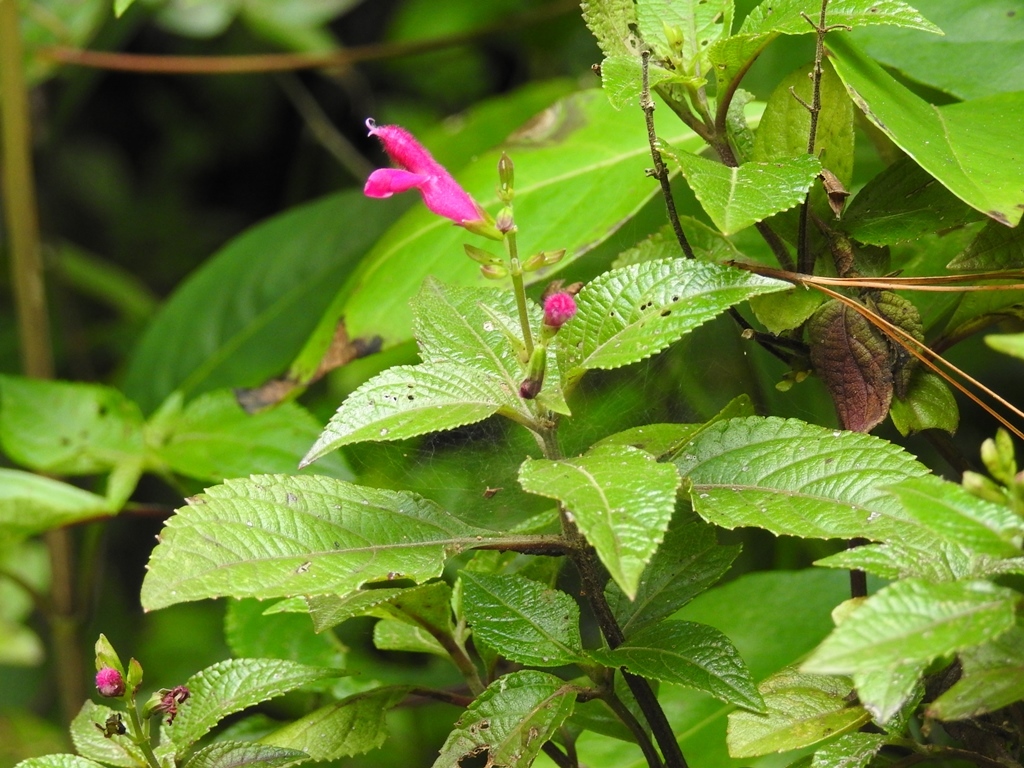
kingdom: Plantae
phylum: Tracheophyta
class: Magnoliopsida
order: Lamiales
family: Lamiaceae
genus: Salvia
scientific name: Salvia chiapensis
